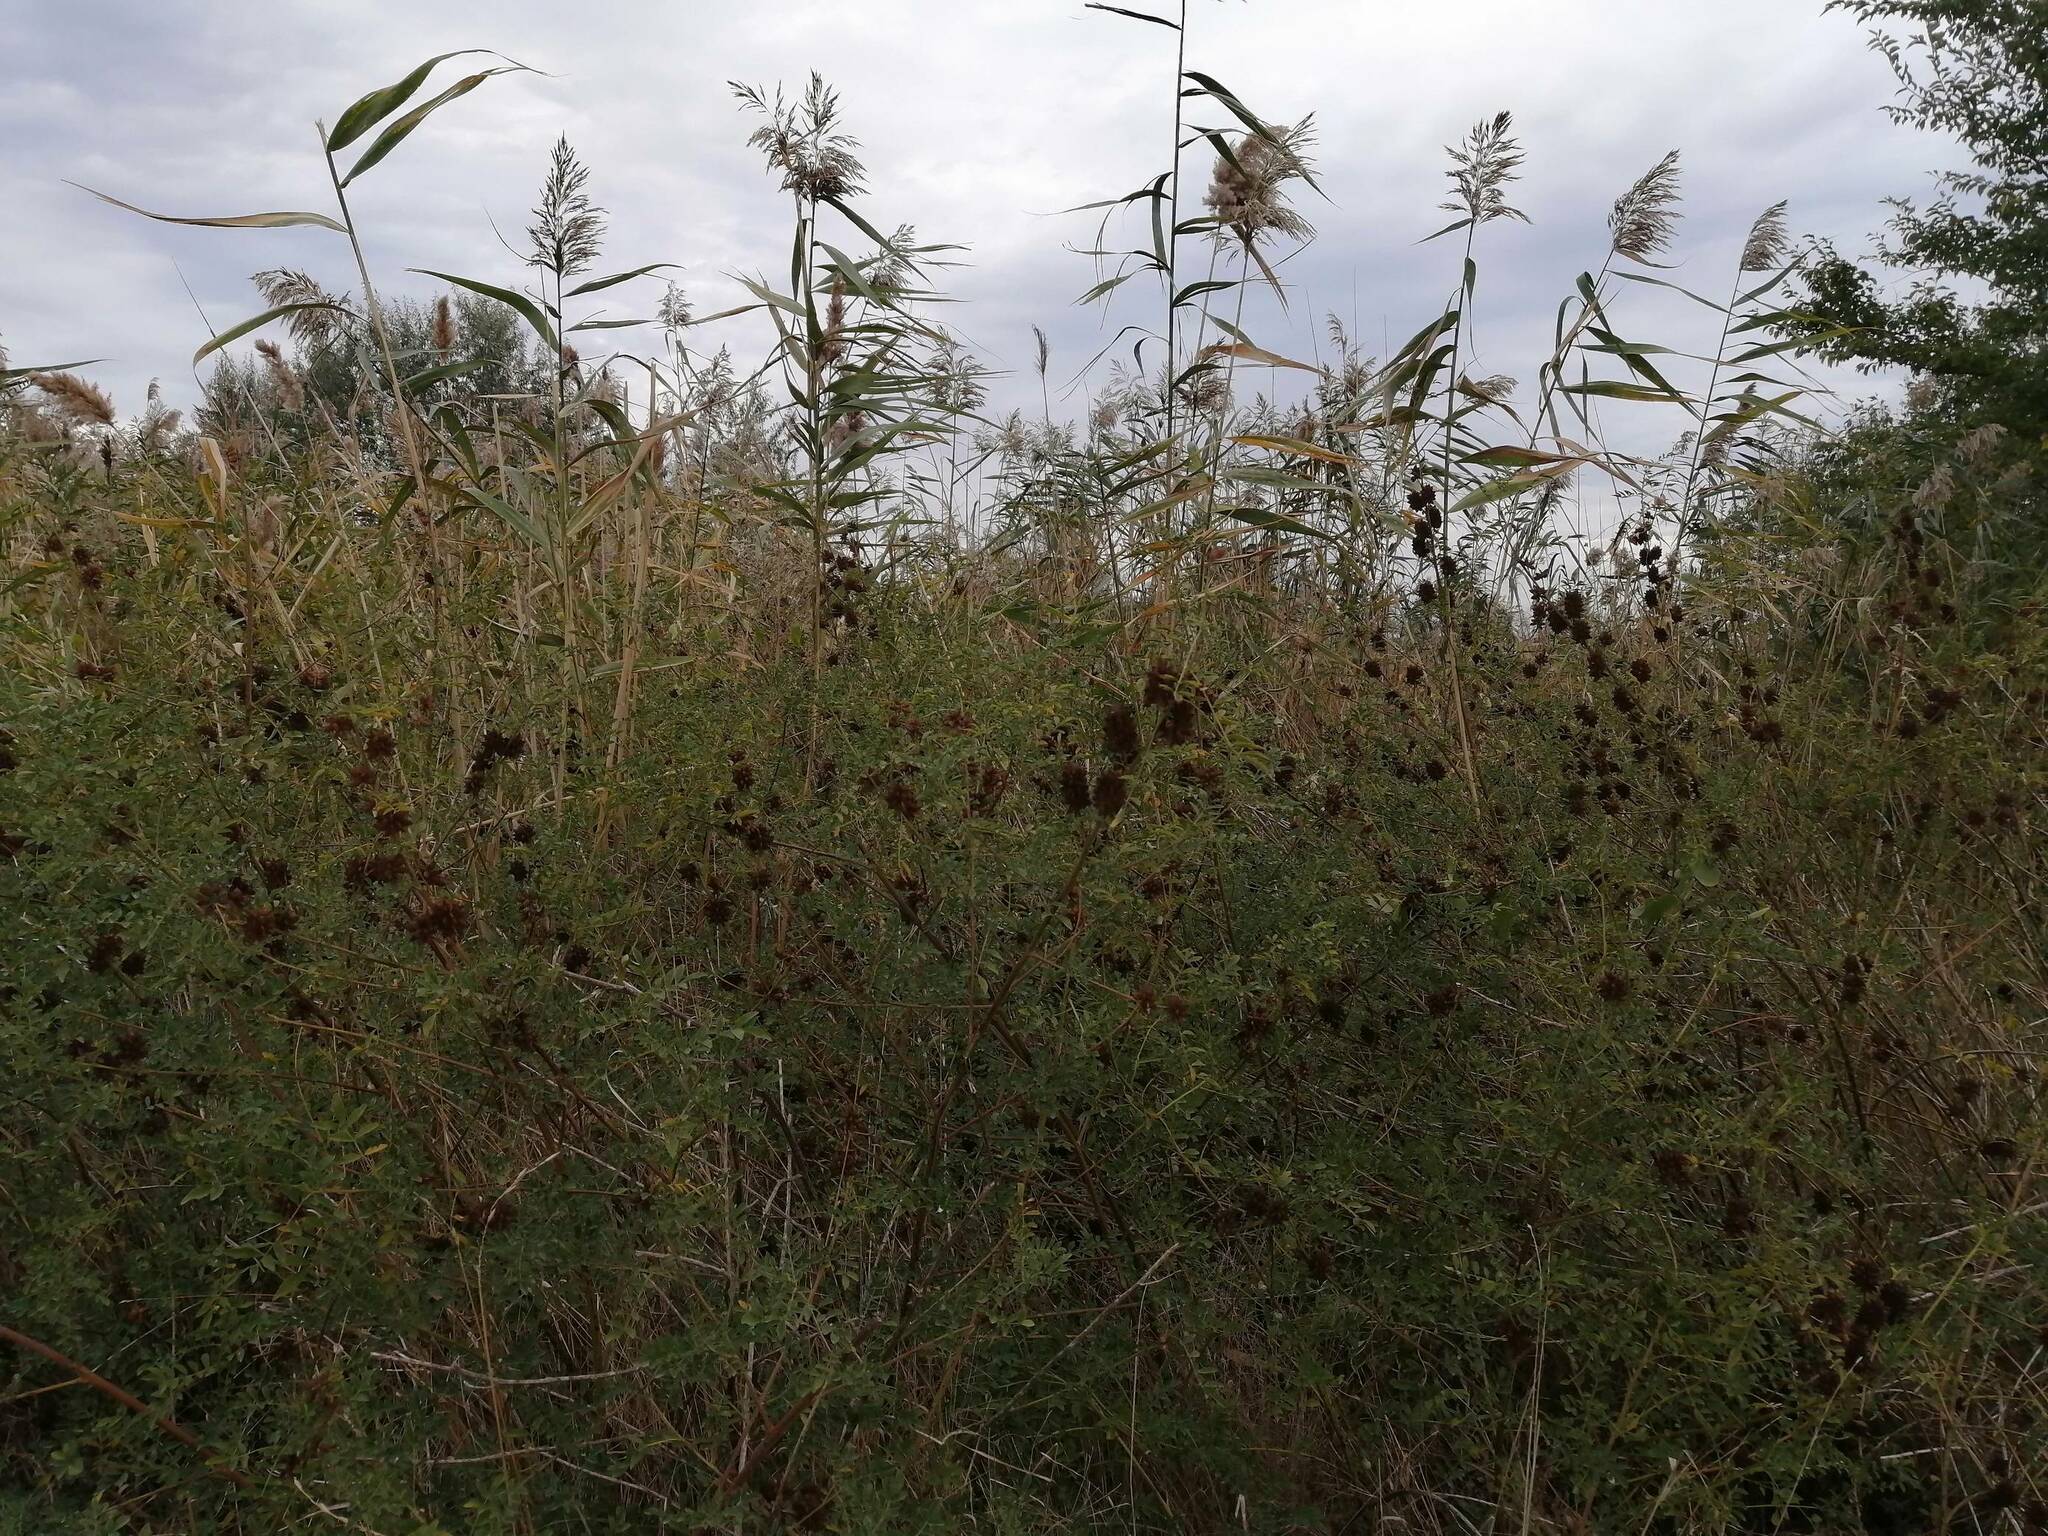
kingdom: Plantae
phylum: Tracheophyta
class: Magnoliopsida
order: Fabales
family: Fabaceae
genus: Glycyrrhiza
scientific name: Glycyrrhiza echinata
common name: German liquorice
